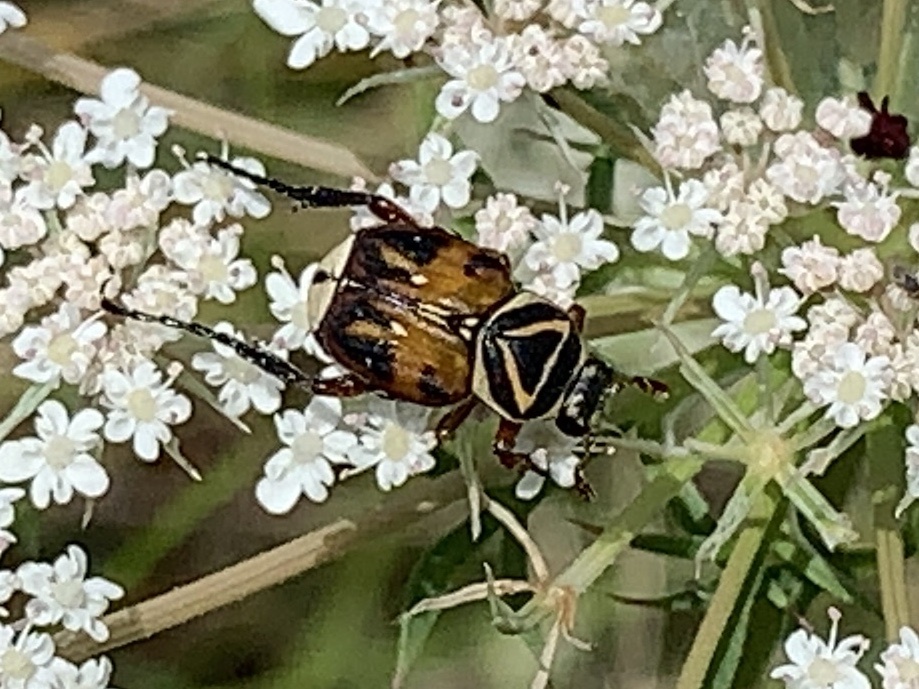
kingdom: Animalia
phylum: Arthropoda
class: Insecta
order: Coleoptera
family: Scarabaeidae
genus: Trigonopeltastes
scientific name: Trigonopeltastes delta
